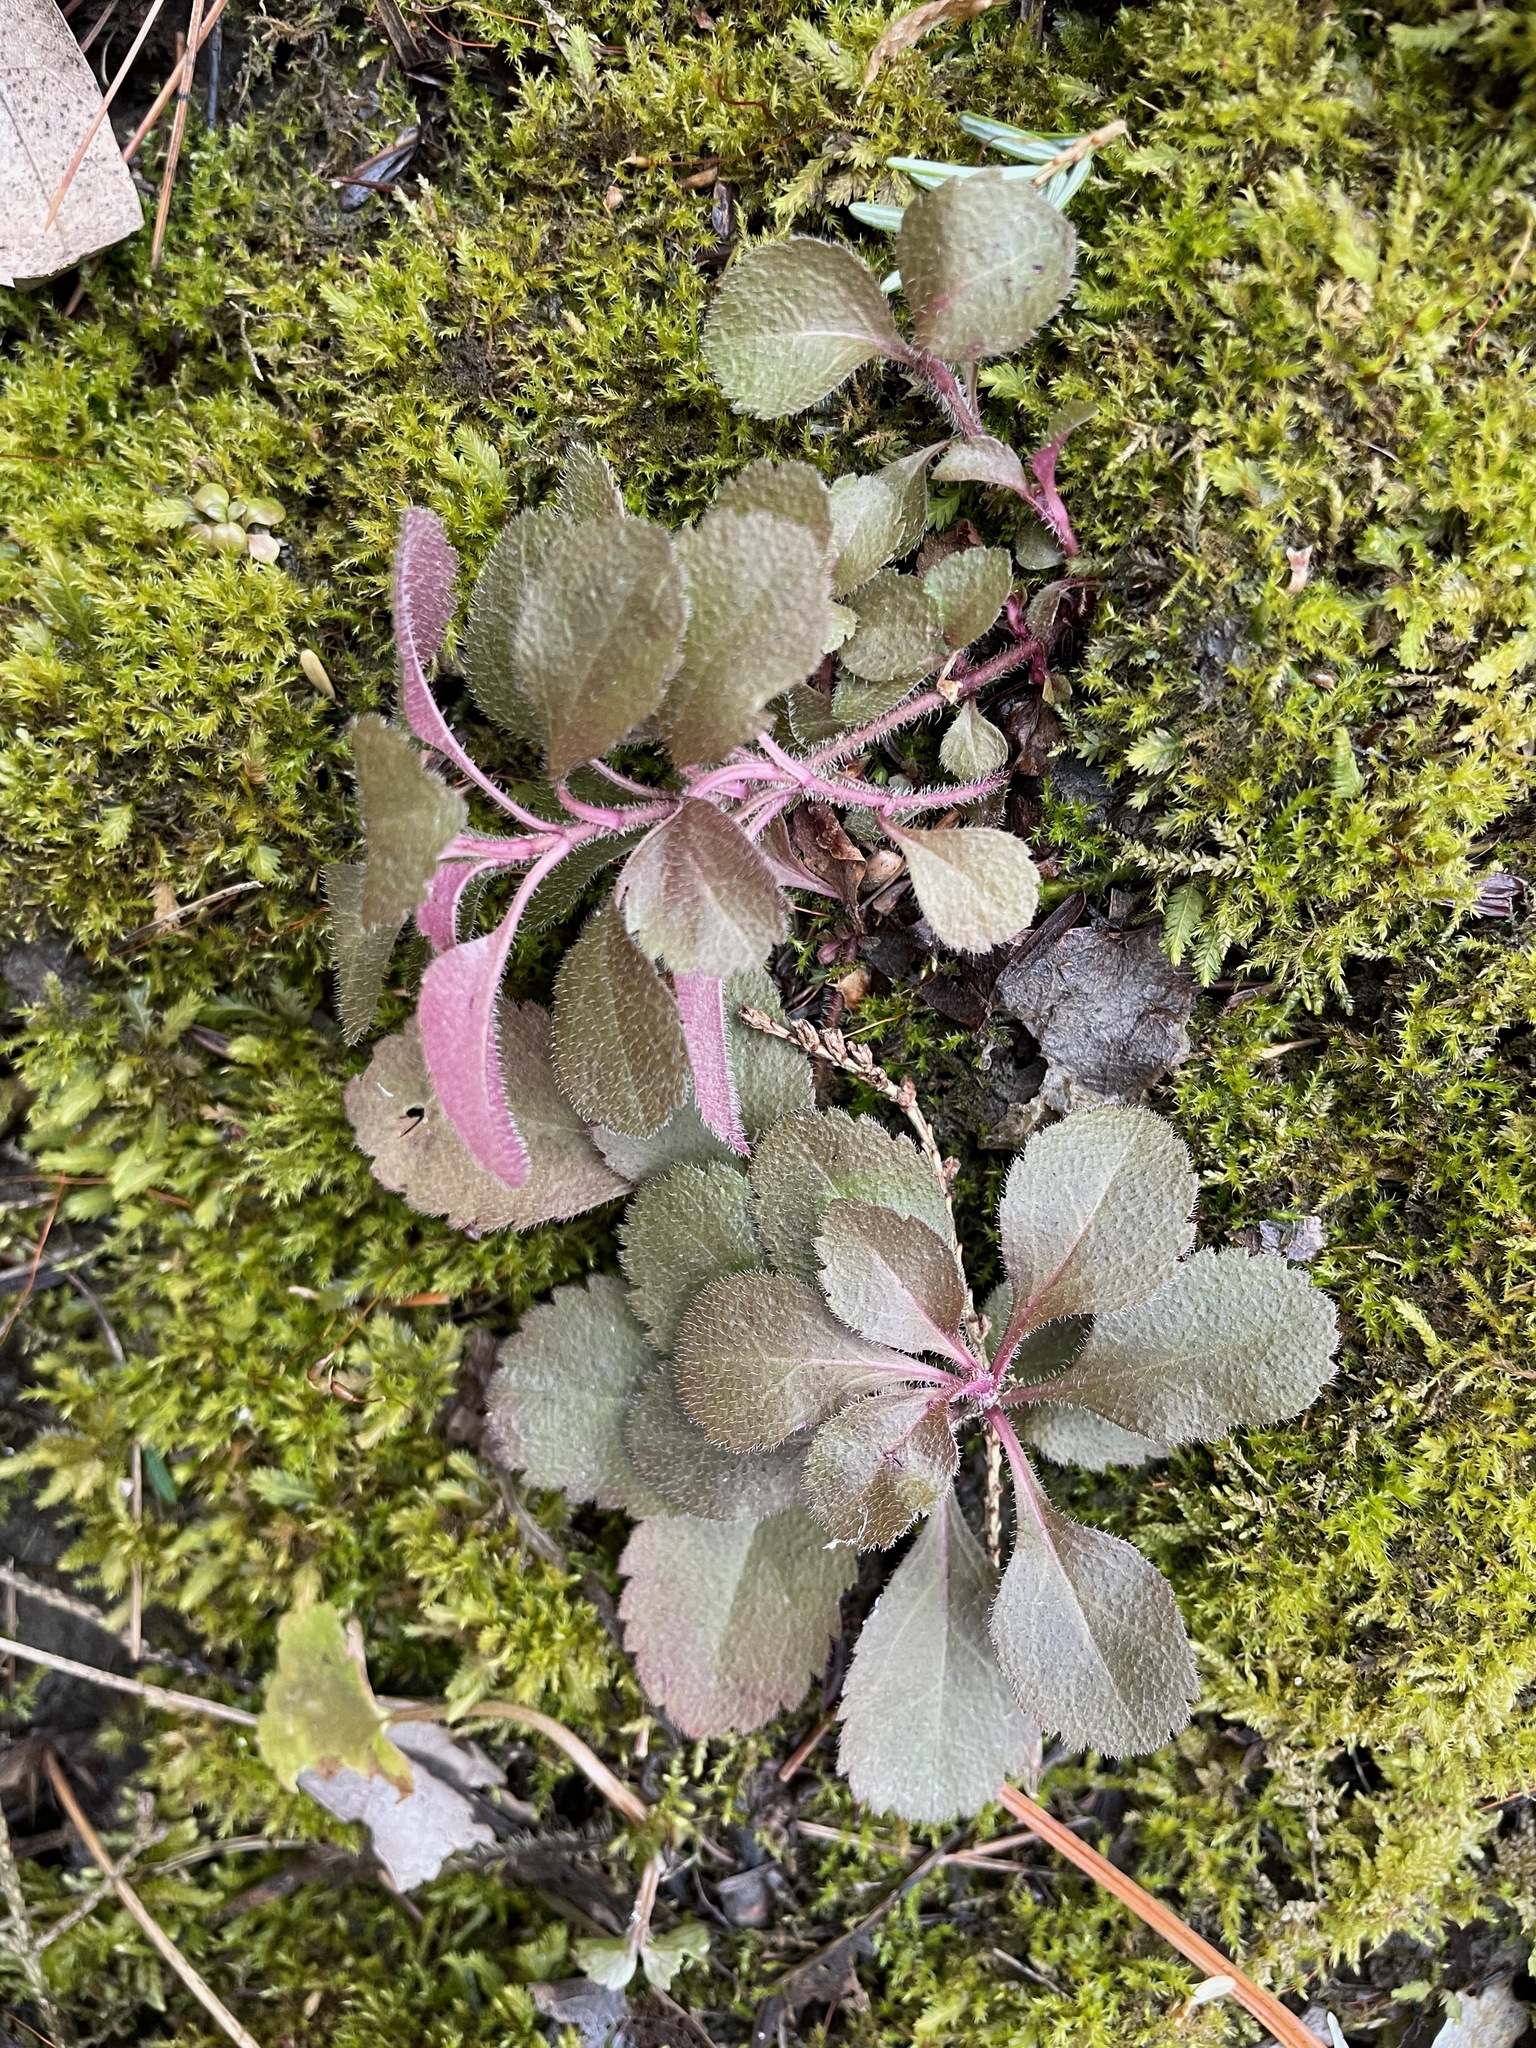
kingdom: Plantae
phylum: Tracheophyta
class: Magnoliopsida
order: Lamiales
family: Plantaginaceae
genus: Veronica
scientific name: Veronica officinalis
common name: Common speedwell
